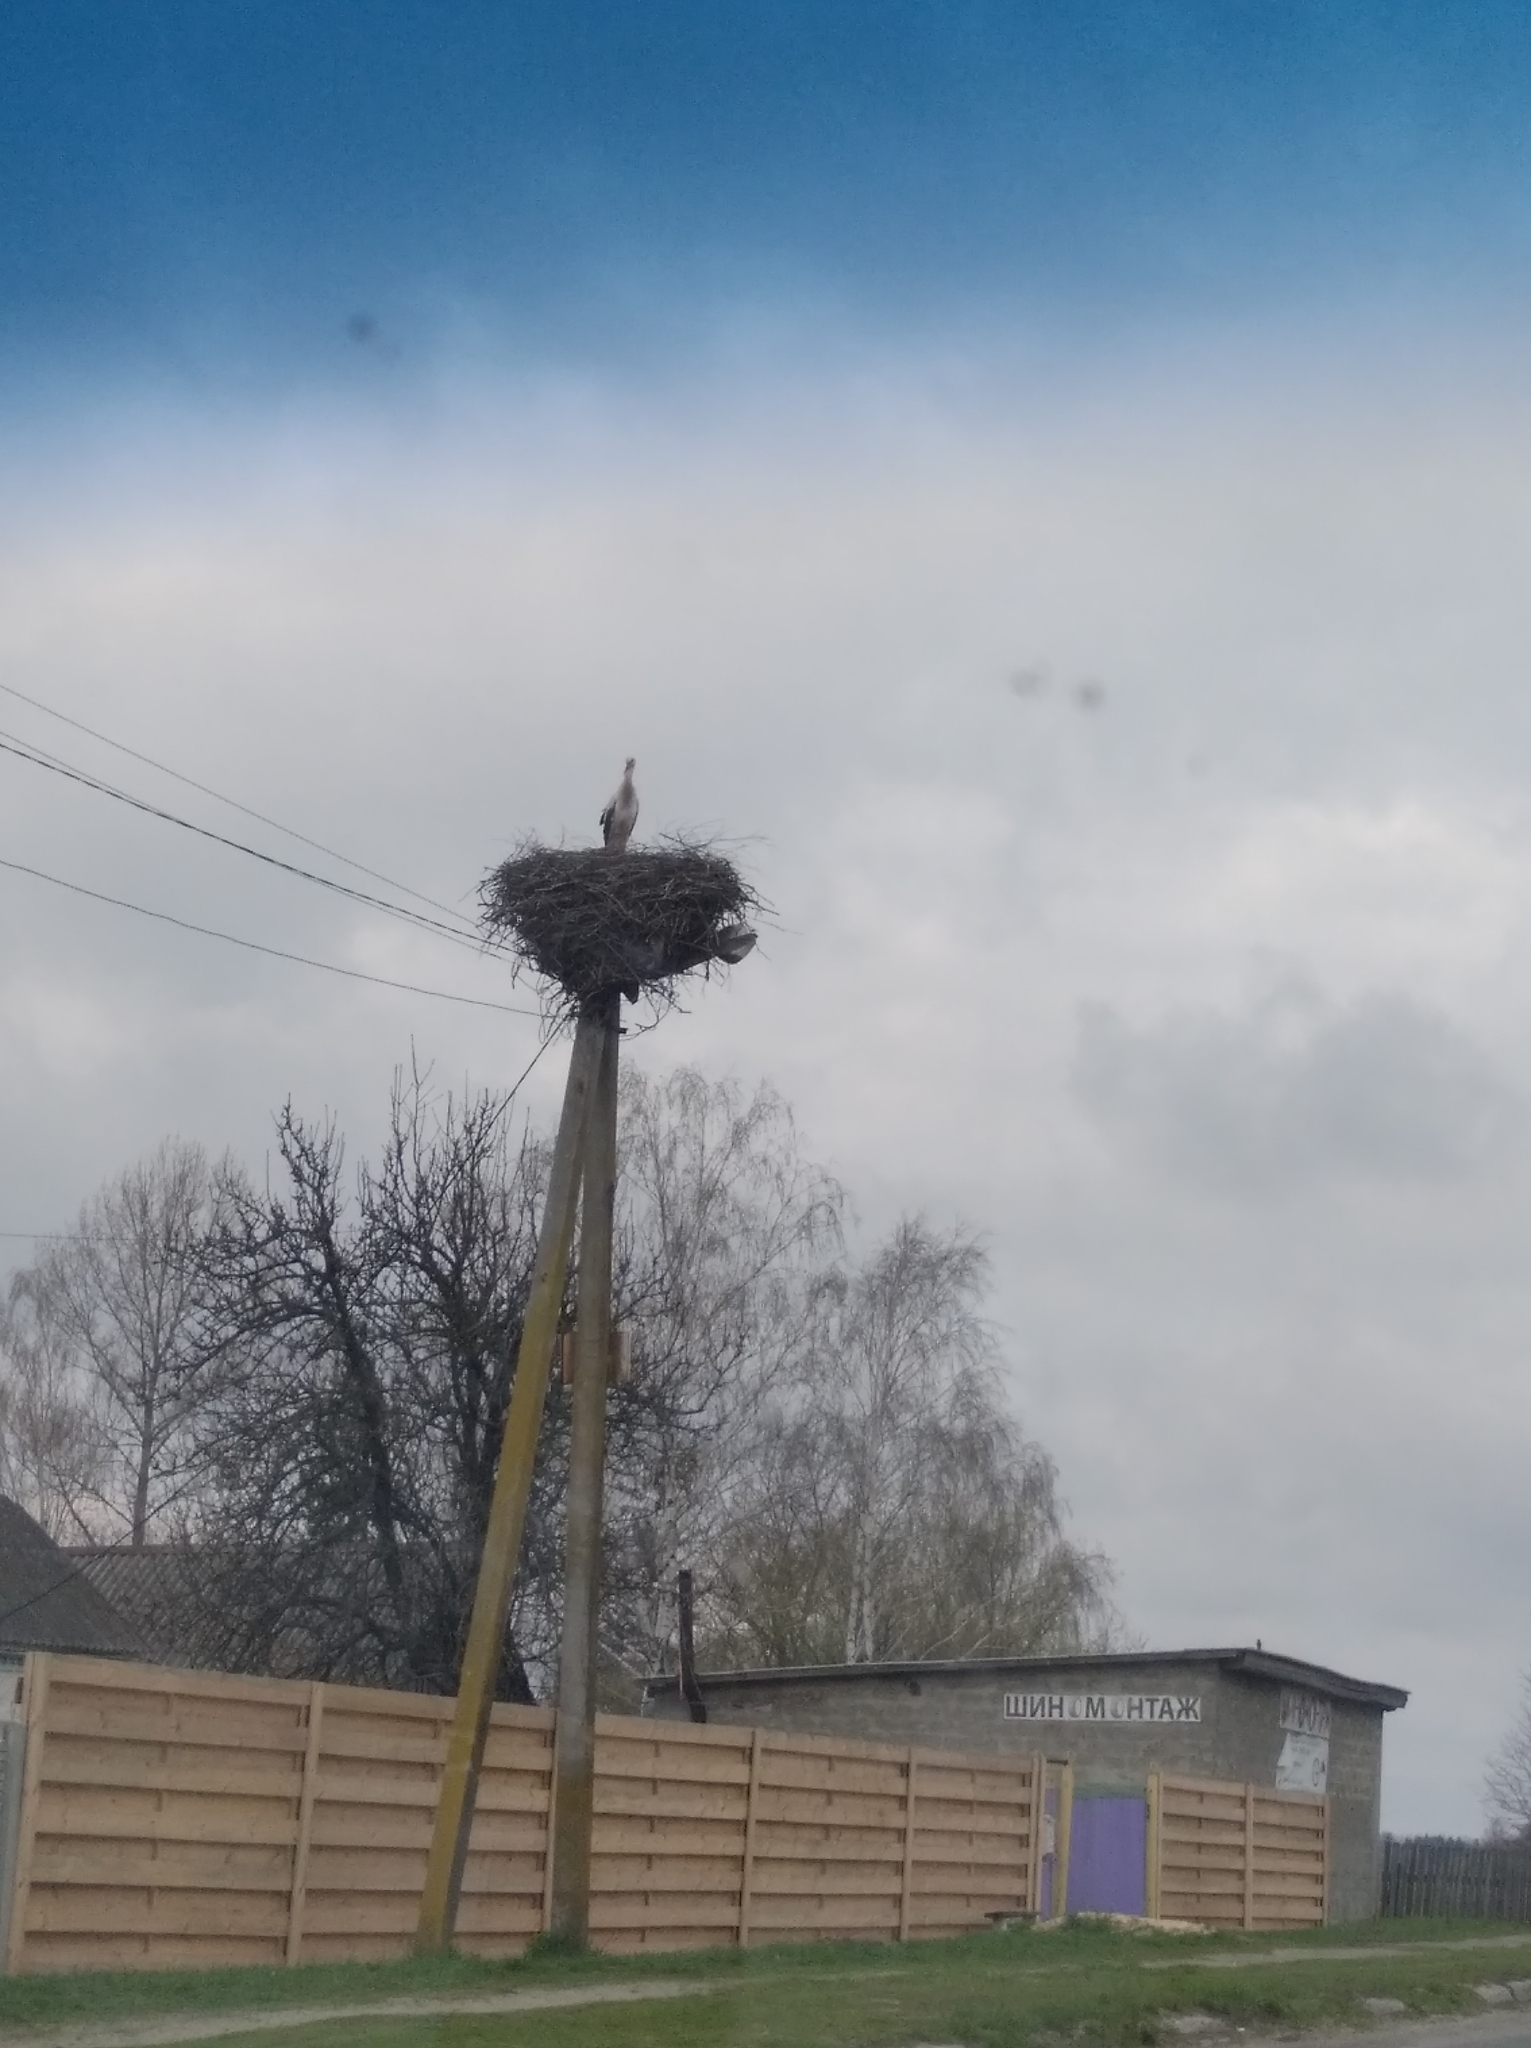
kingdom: Animalia
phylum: Chordata
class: Aves
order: Ciconiiformes
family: Ciconiidae
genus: Ciconia
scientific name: Ciconia ciconia
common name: White stork
